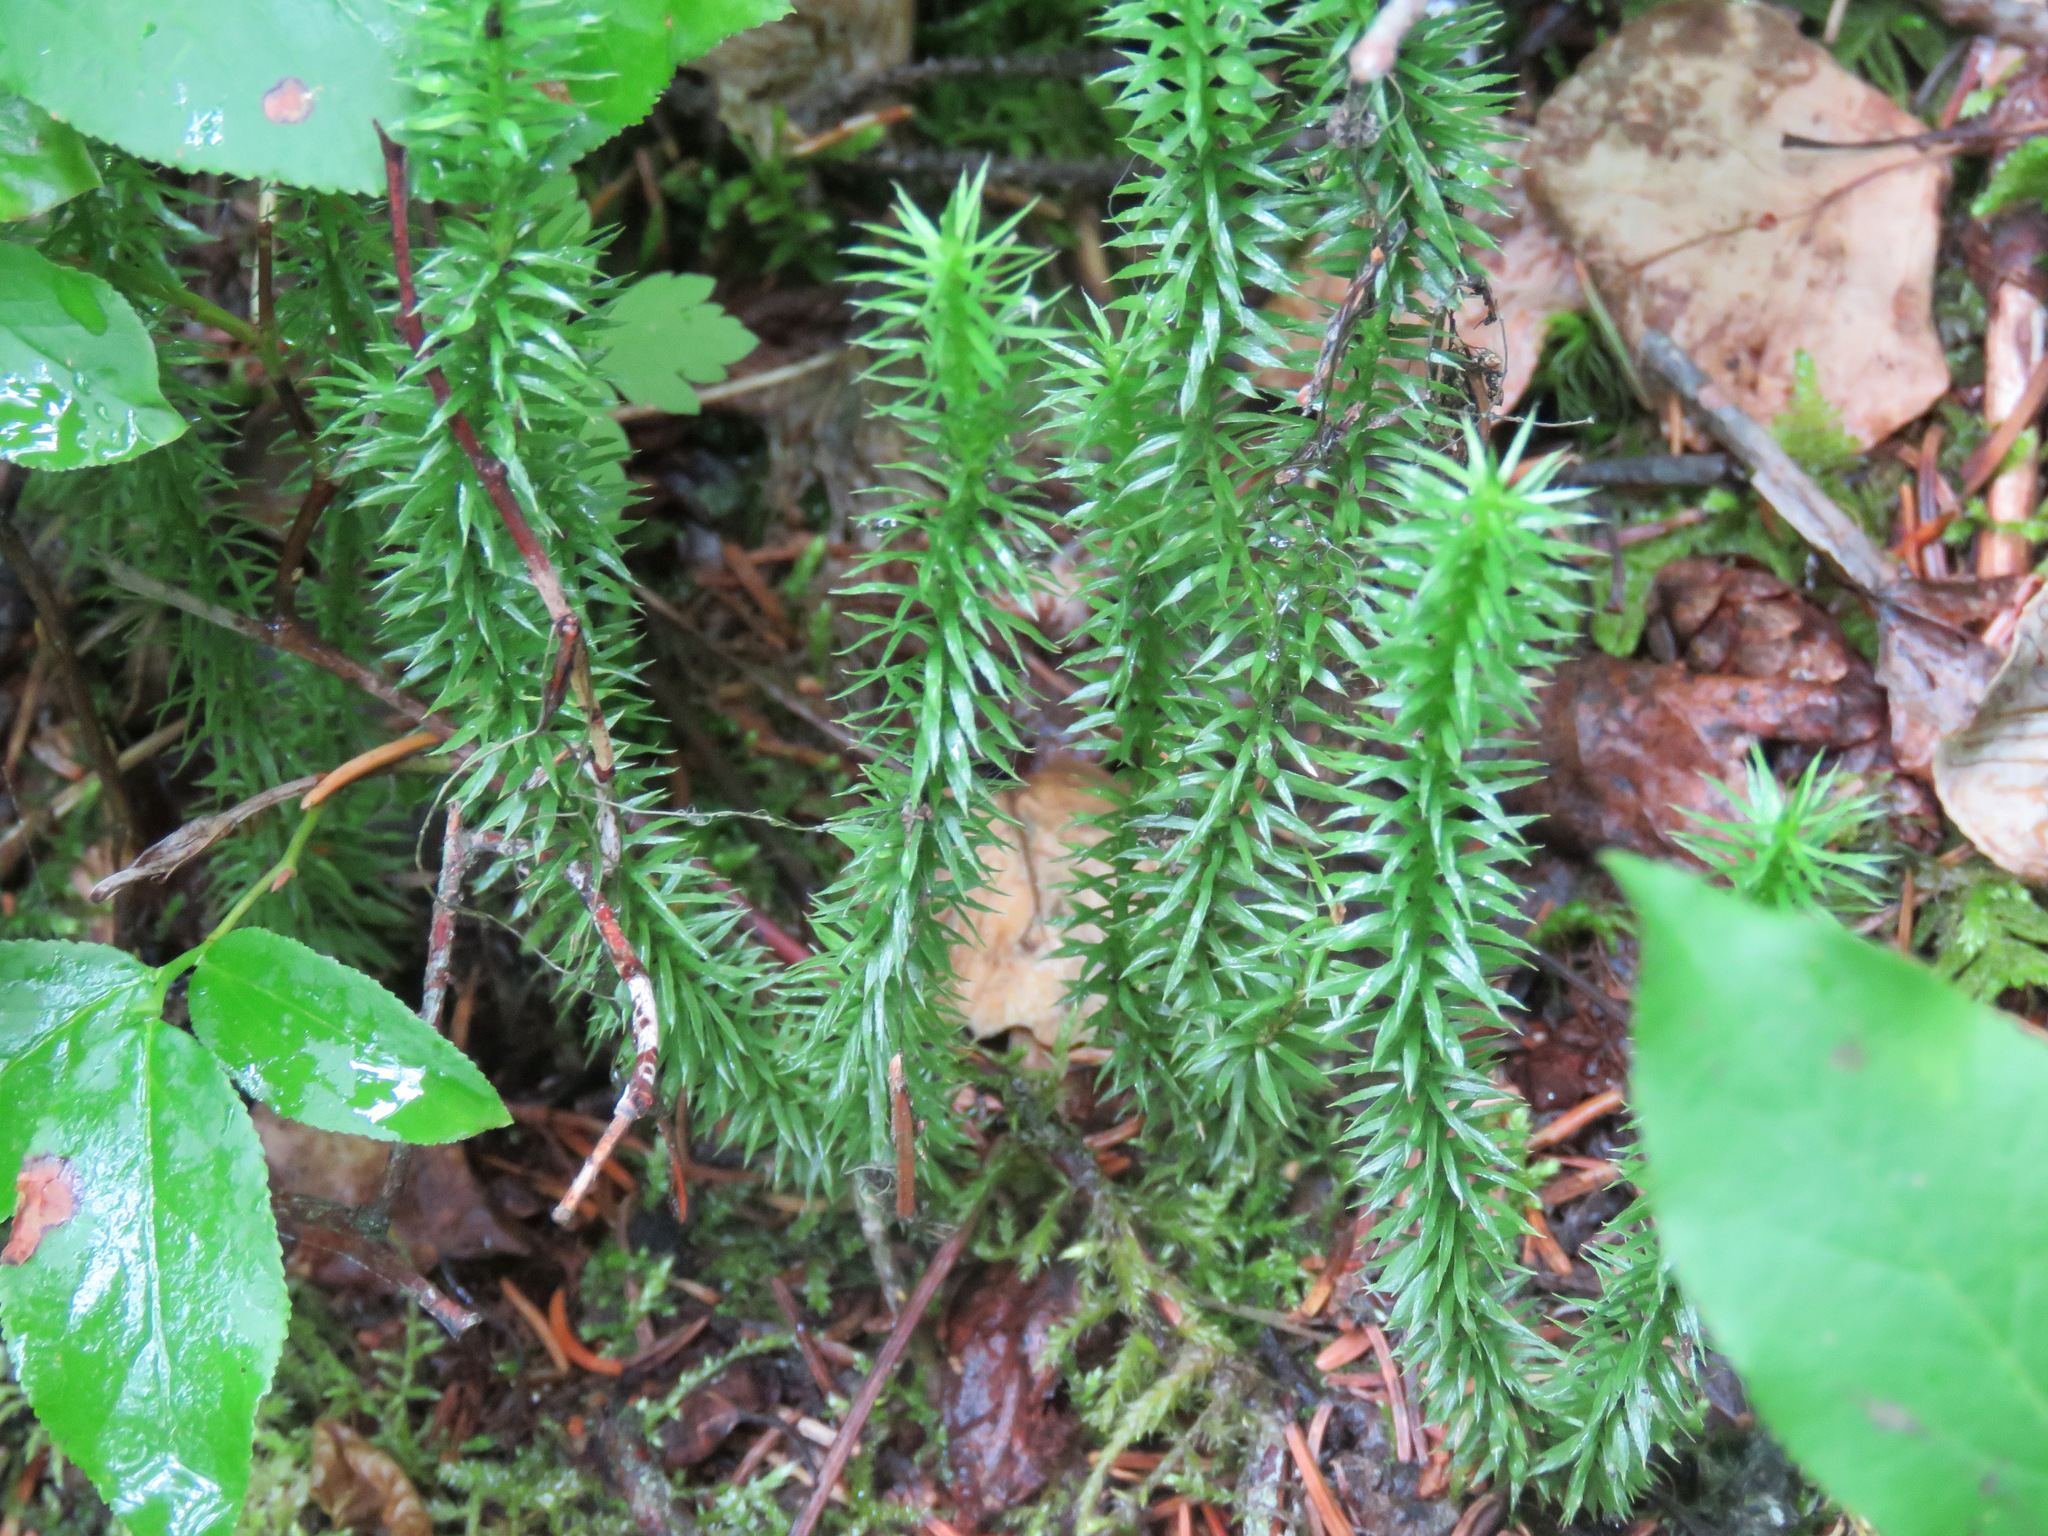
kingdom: Plantae
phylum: Tracheophyta
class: Lycopodiopsida
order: Lycopodiales
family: Lycopodiaceae
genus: Spinulum
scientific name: Spinulum annotinum
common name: Interrupted club-moss
